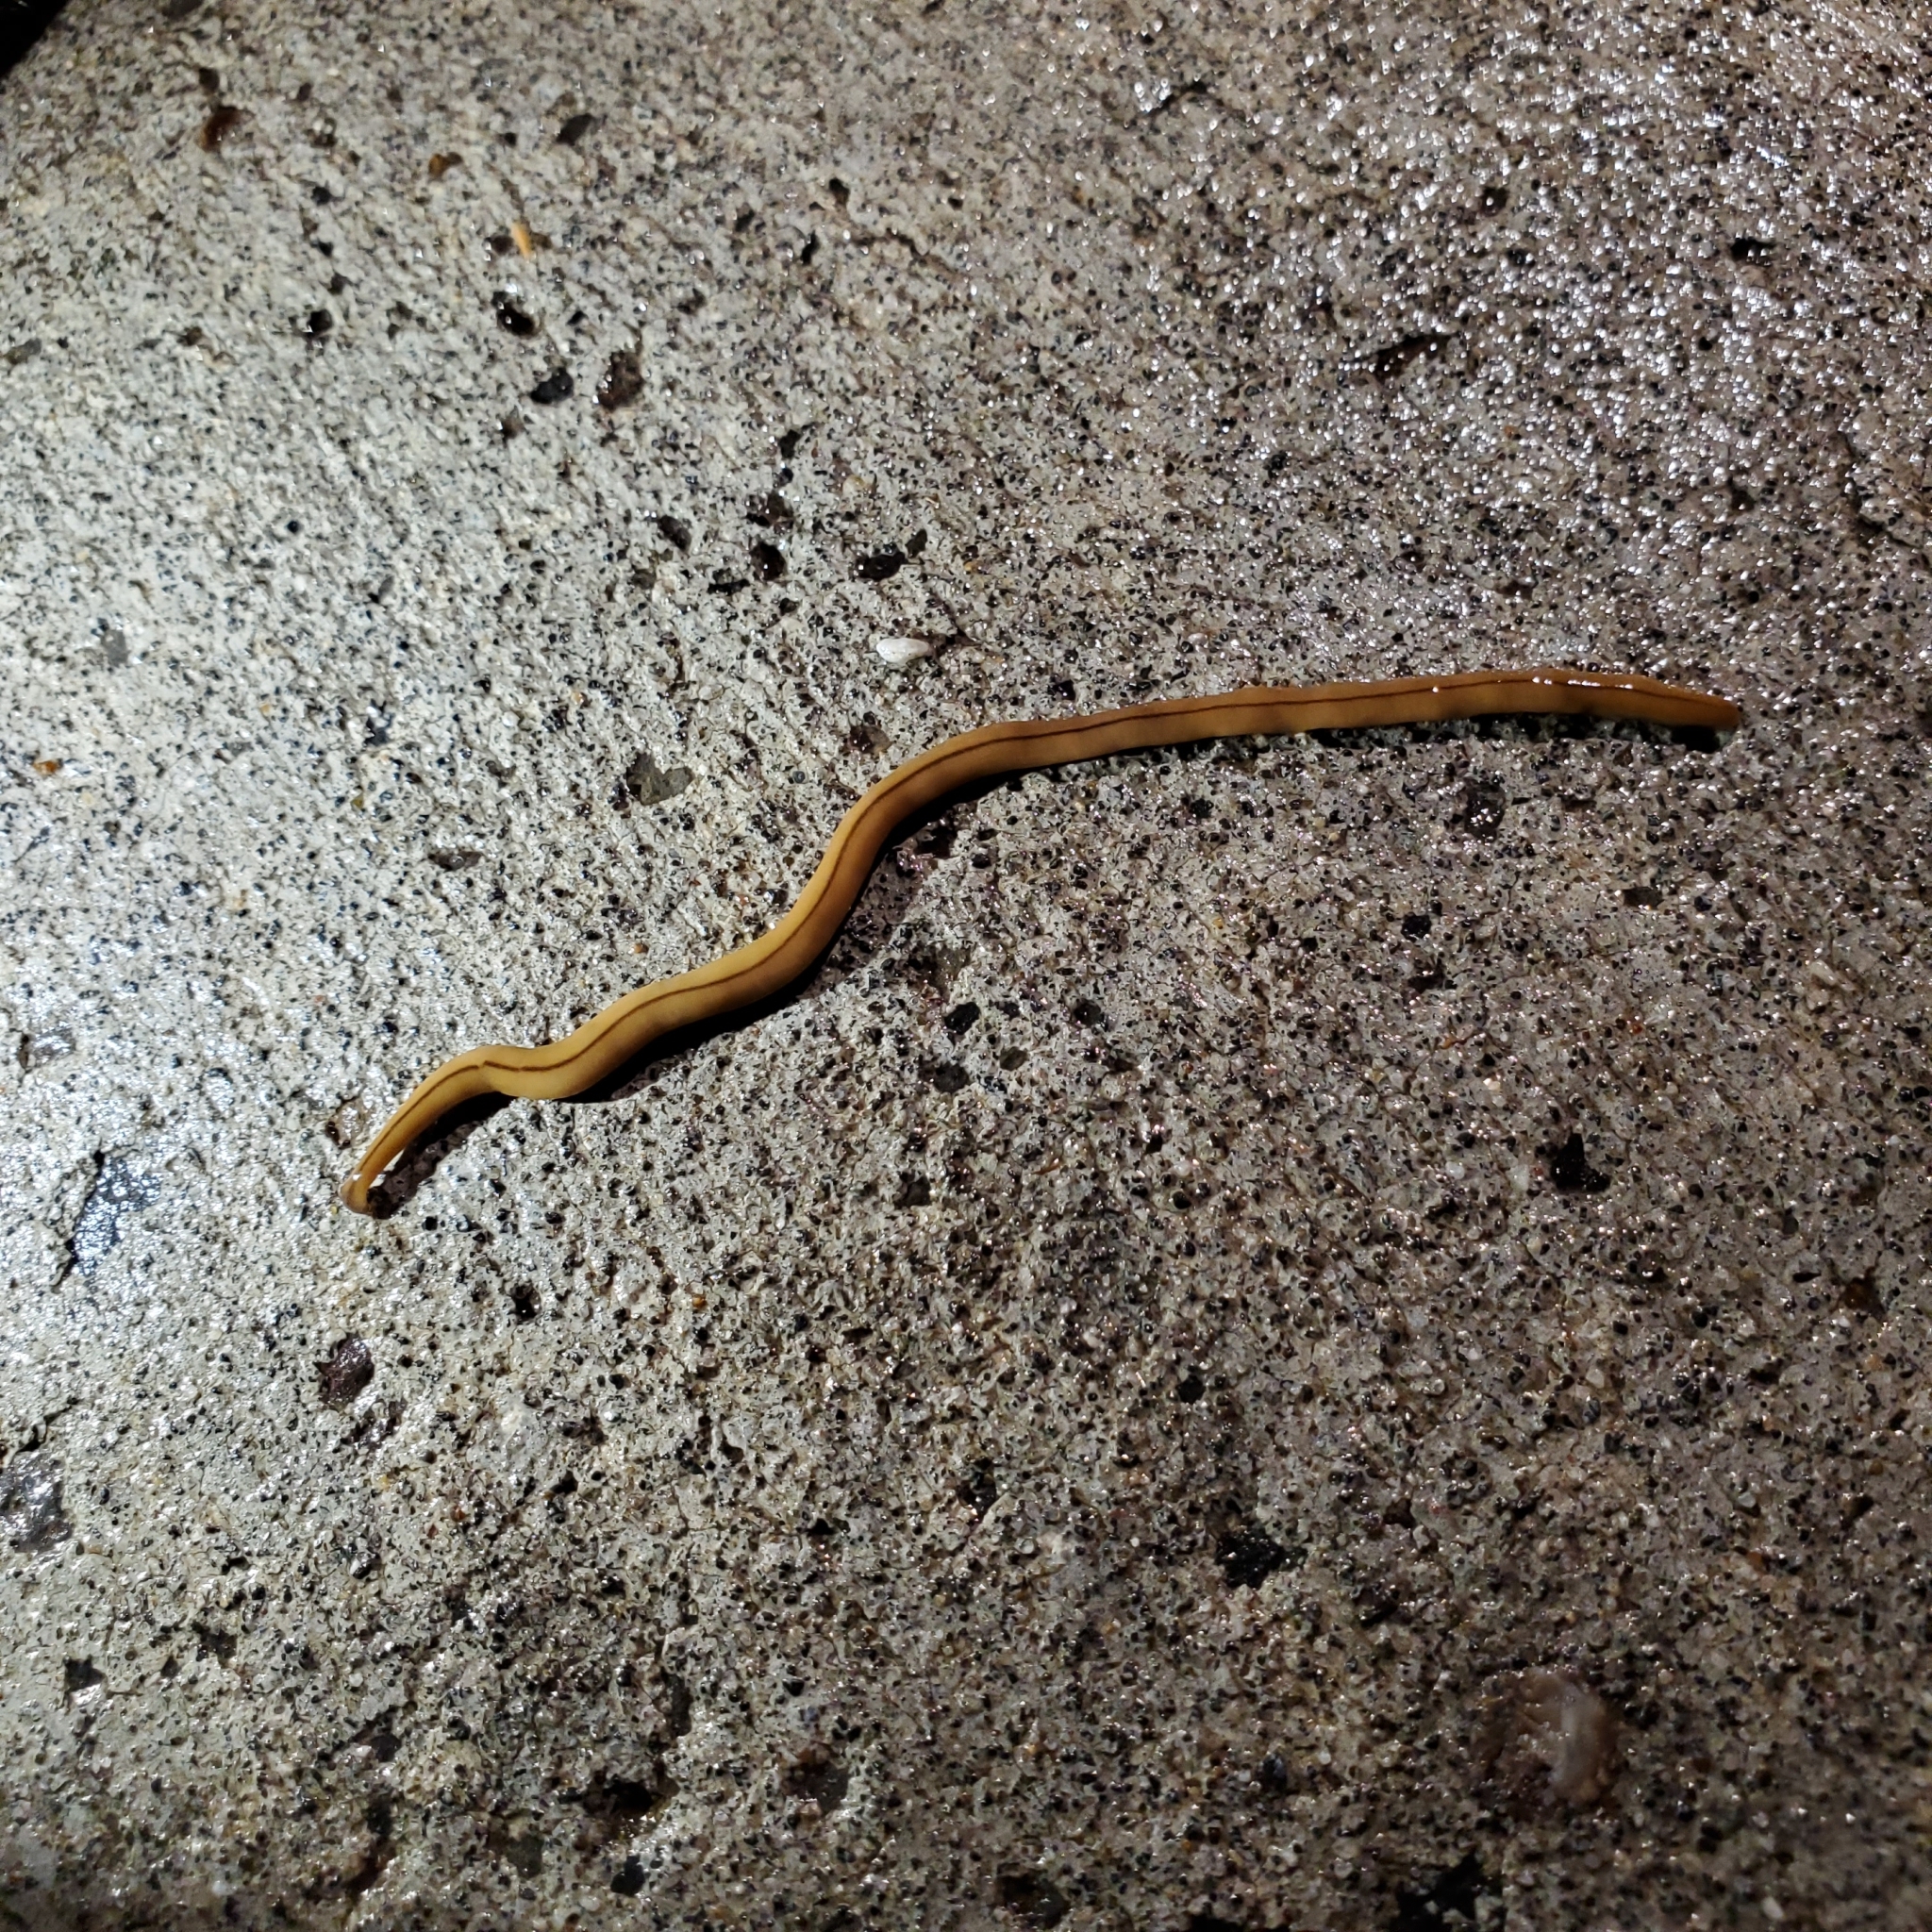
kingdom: Animalia
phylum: Platyhelminthes
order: Tricladida
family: Geoplanidae
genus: Bipalium
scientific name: Bipalium adventitium
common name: Land planarian
